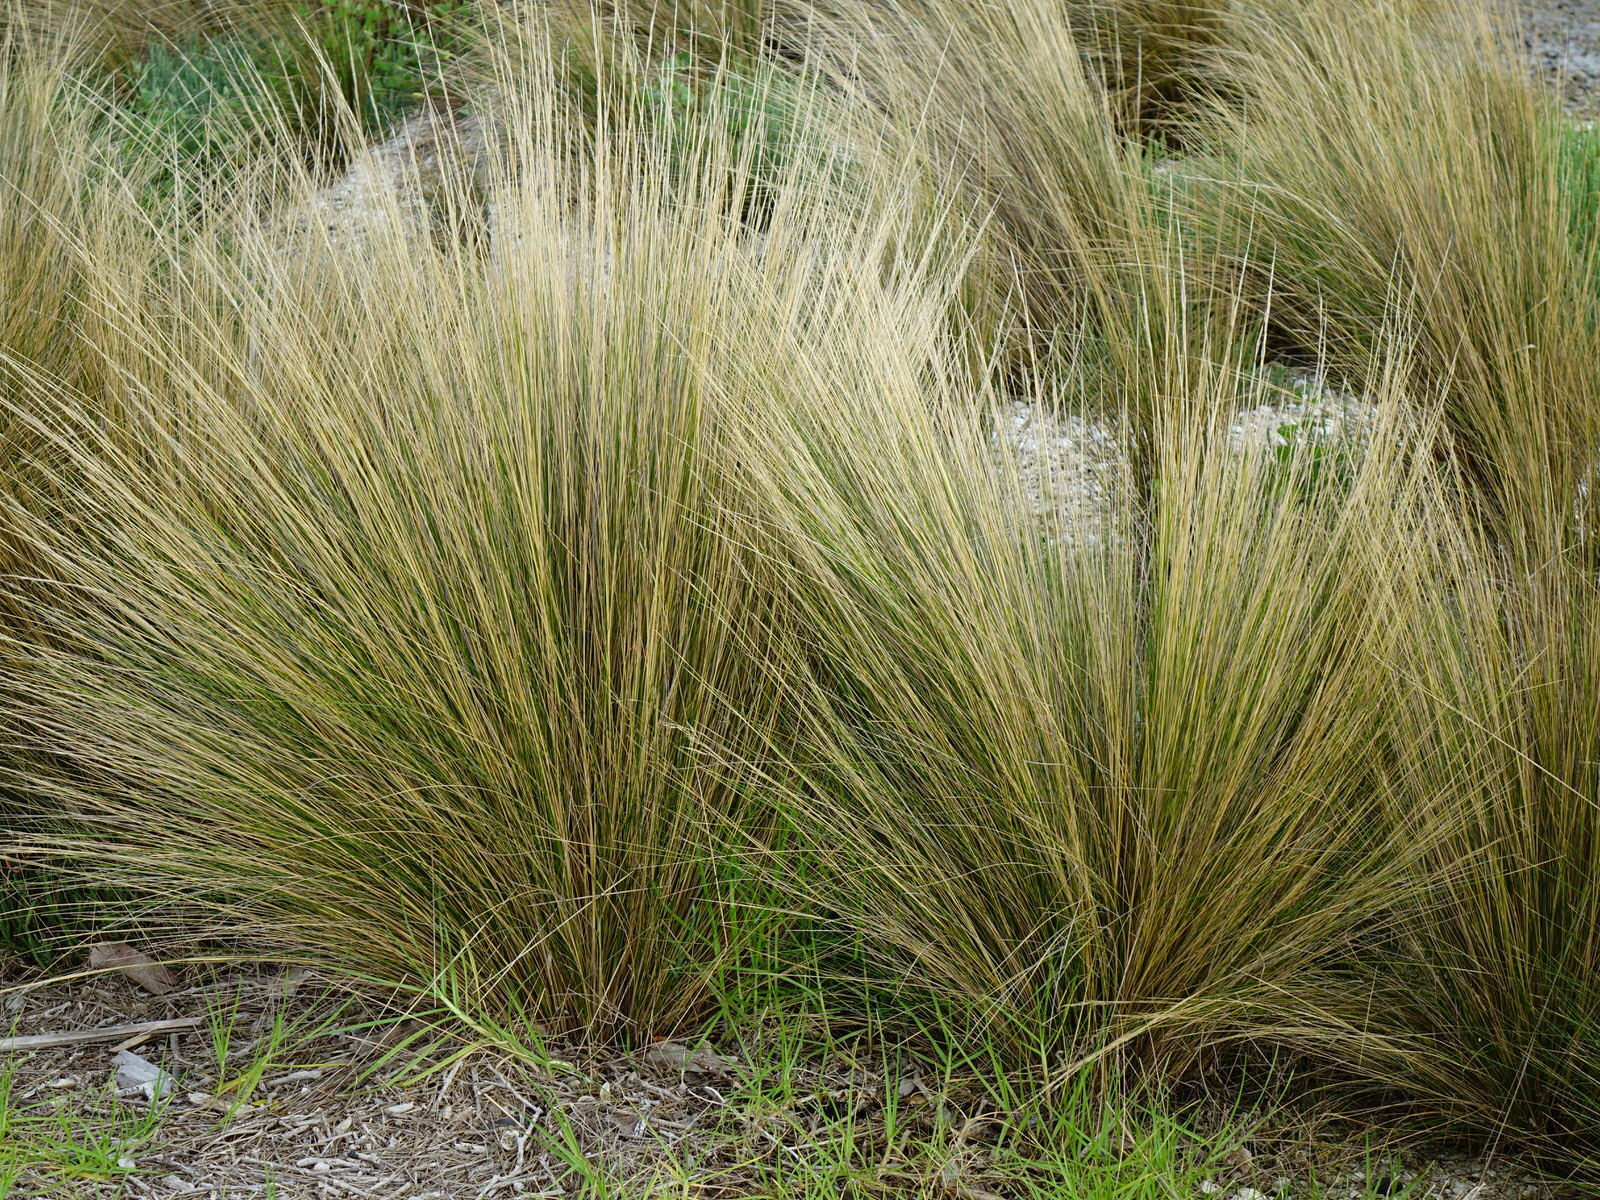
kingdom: Plantae
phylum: Tracheophyta
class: Liliopsida
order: Poales
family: Poaceae
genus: Austrostipa
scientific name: Austrostipa stipoides
